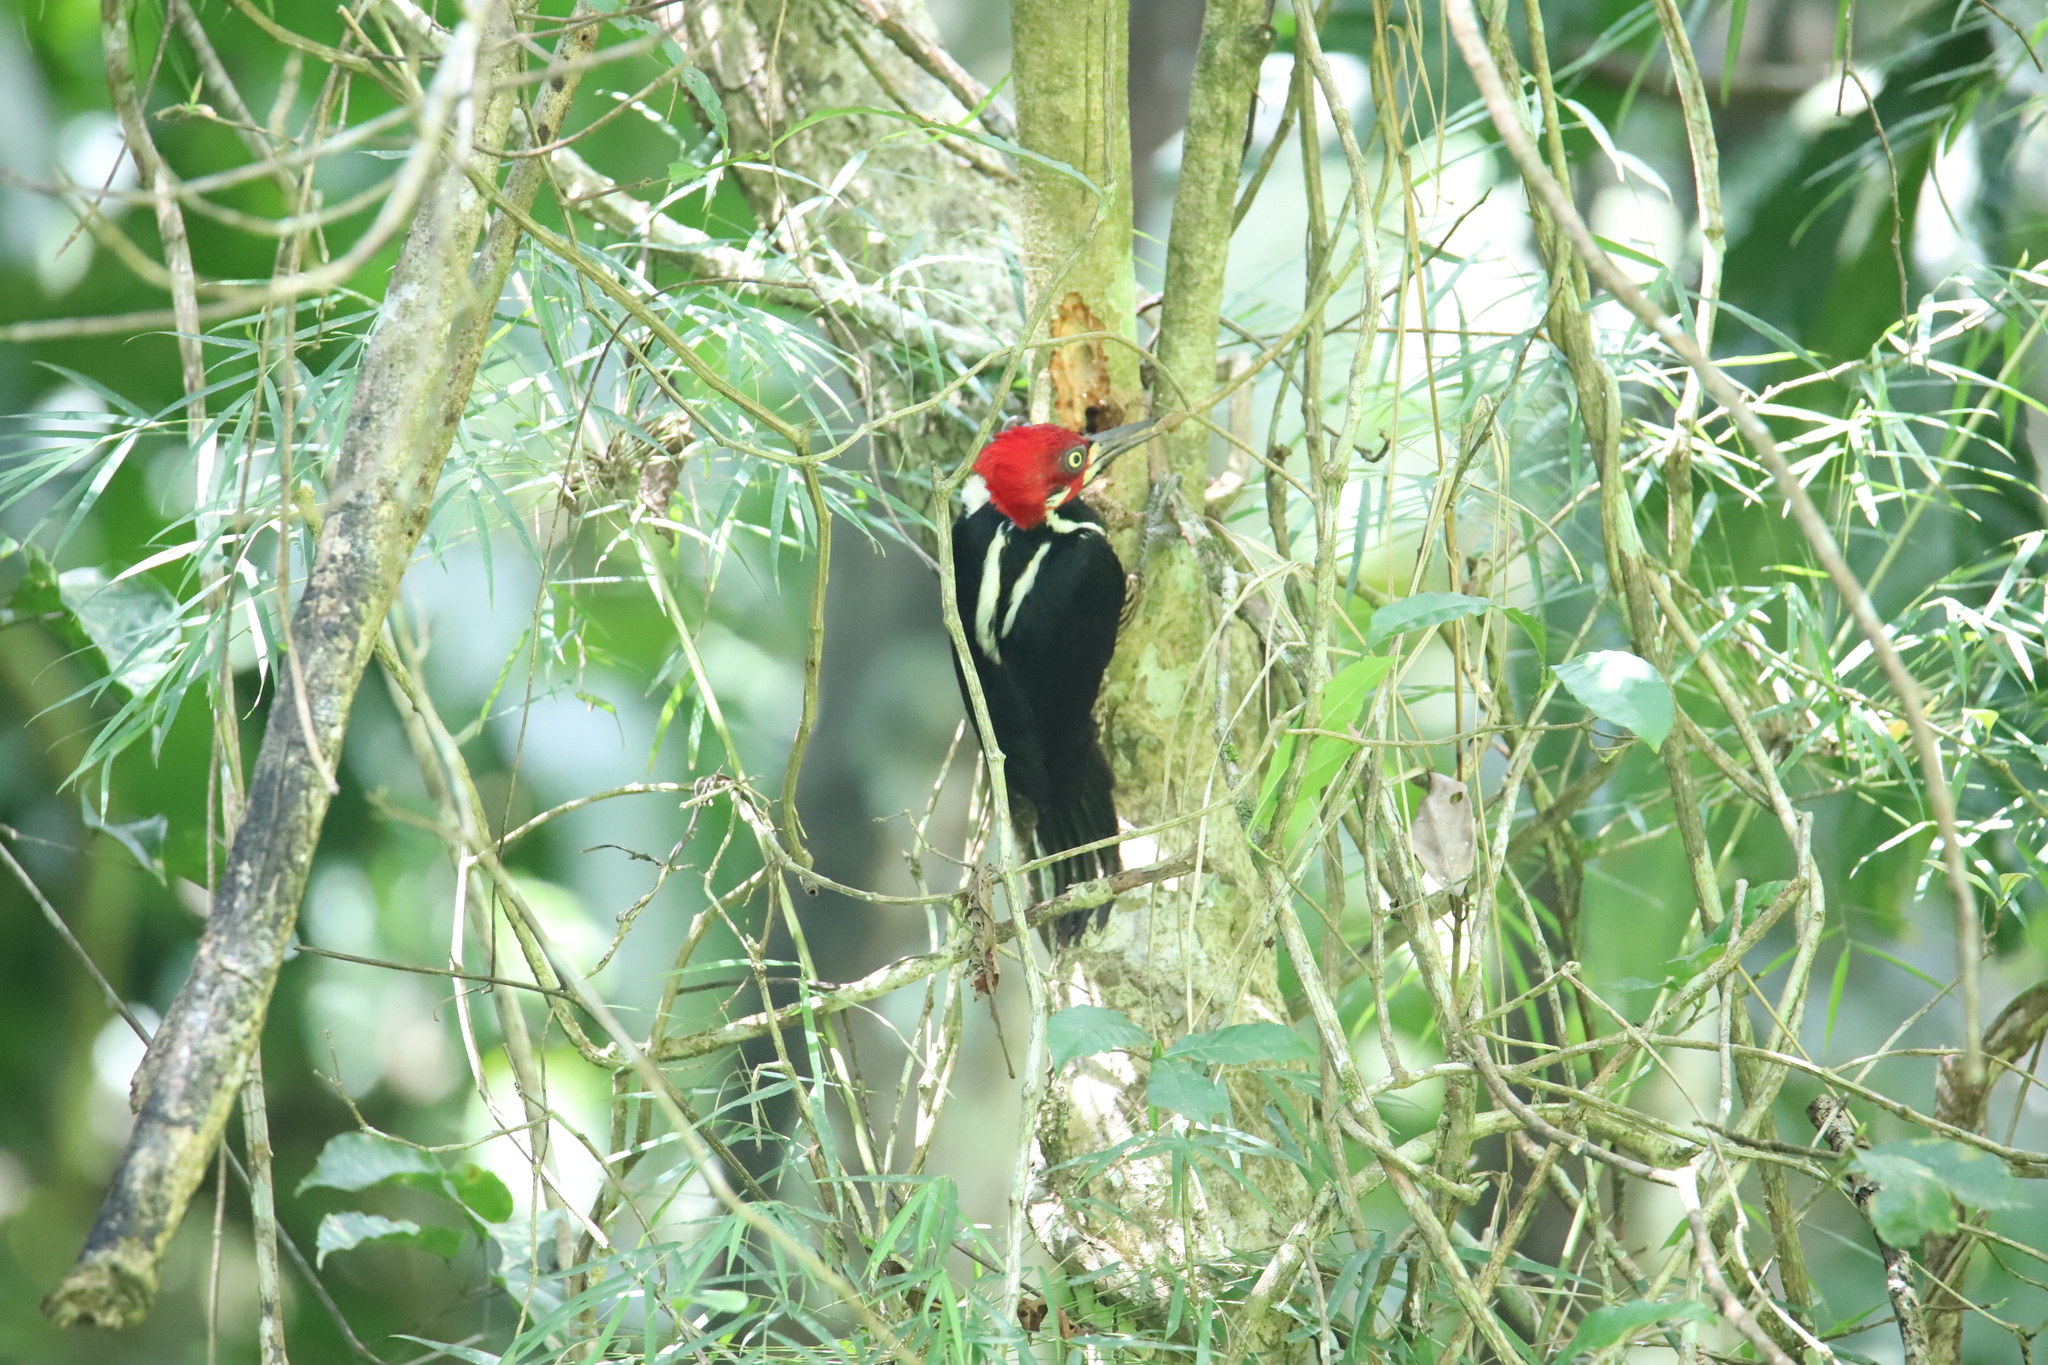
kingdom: Animalia
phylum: Chordata
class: Aves
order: Piciformes
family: Picidae
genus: Campephilus
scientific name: Campephilus melanoleucos
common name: Crimson-crested woodpecker
